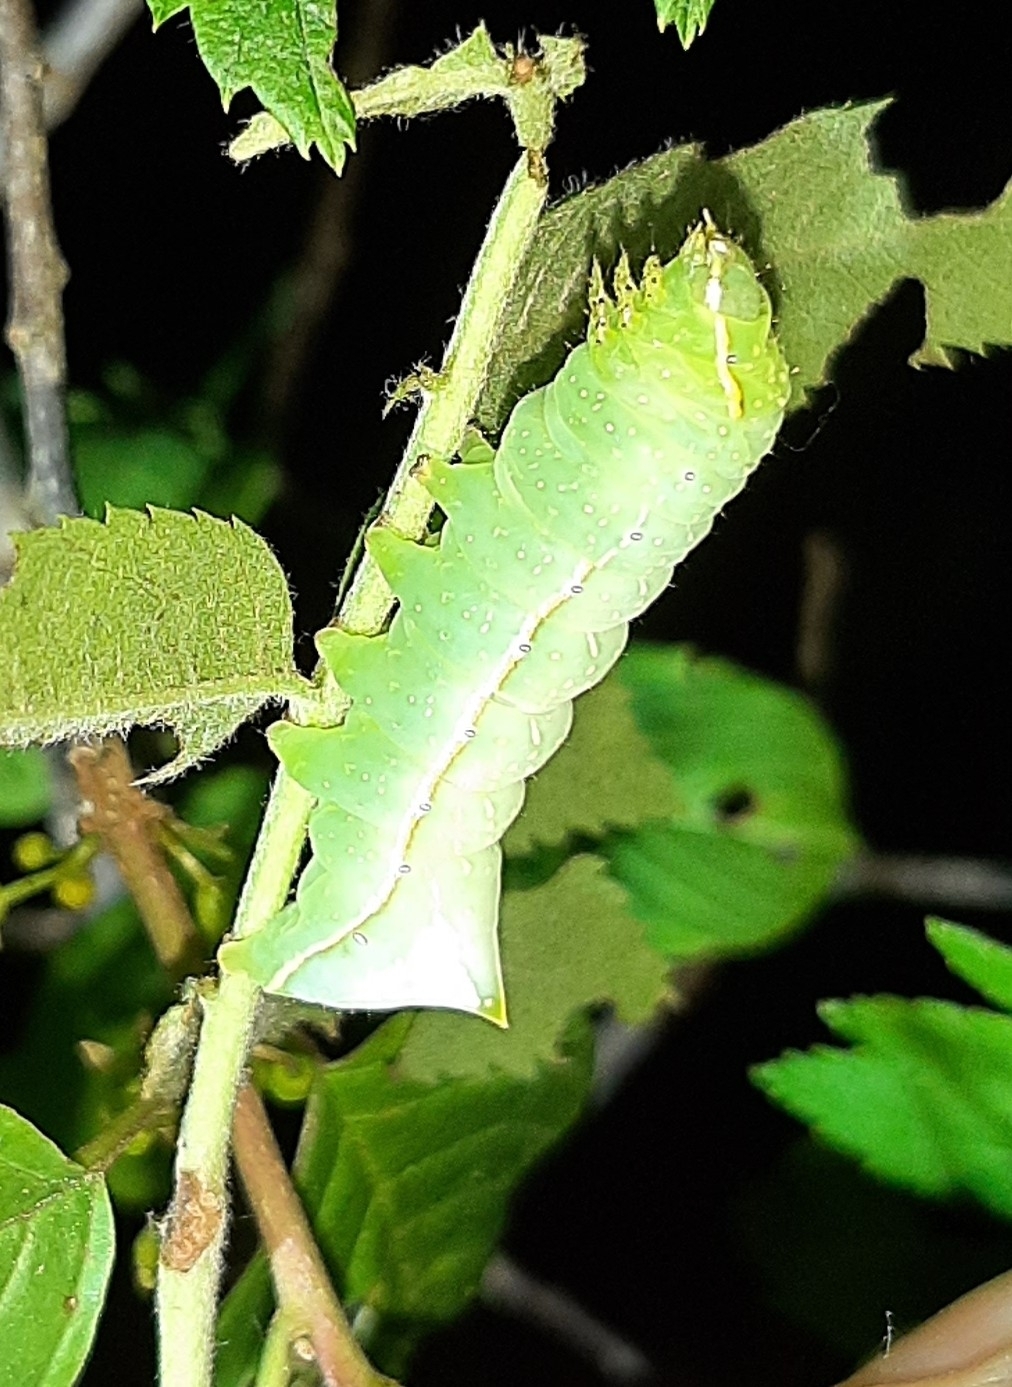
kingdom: Animalia
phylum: Arthropoda
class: Insecta
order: Lepidoptera
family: Noctuidae
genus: Amphipyra
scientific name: Amphipyra pyramidea
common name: Copper underwing
